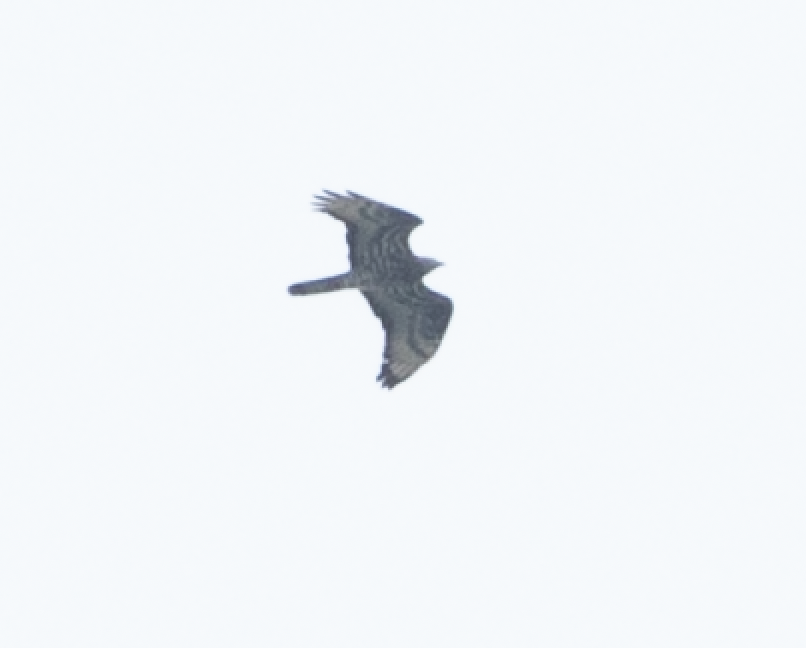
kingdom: Animalia
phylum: Chordata
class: Aves
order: Accipitriformes
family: Accipitridae
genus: Pernis
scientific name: Pernis apivorus
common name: European honey buzzard
